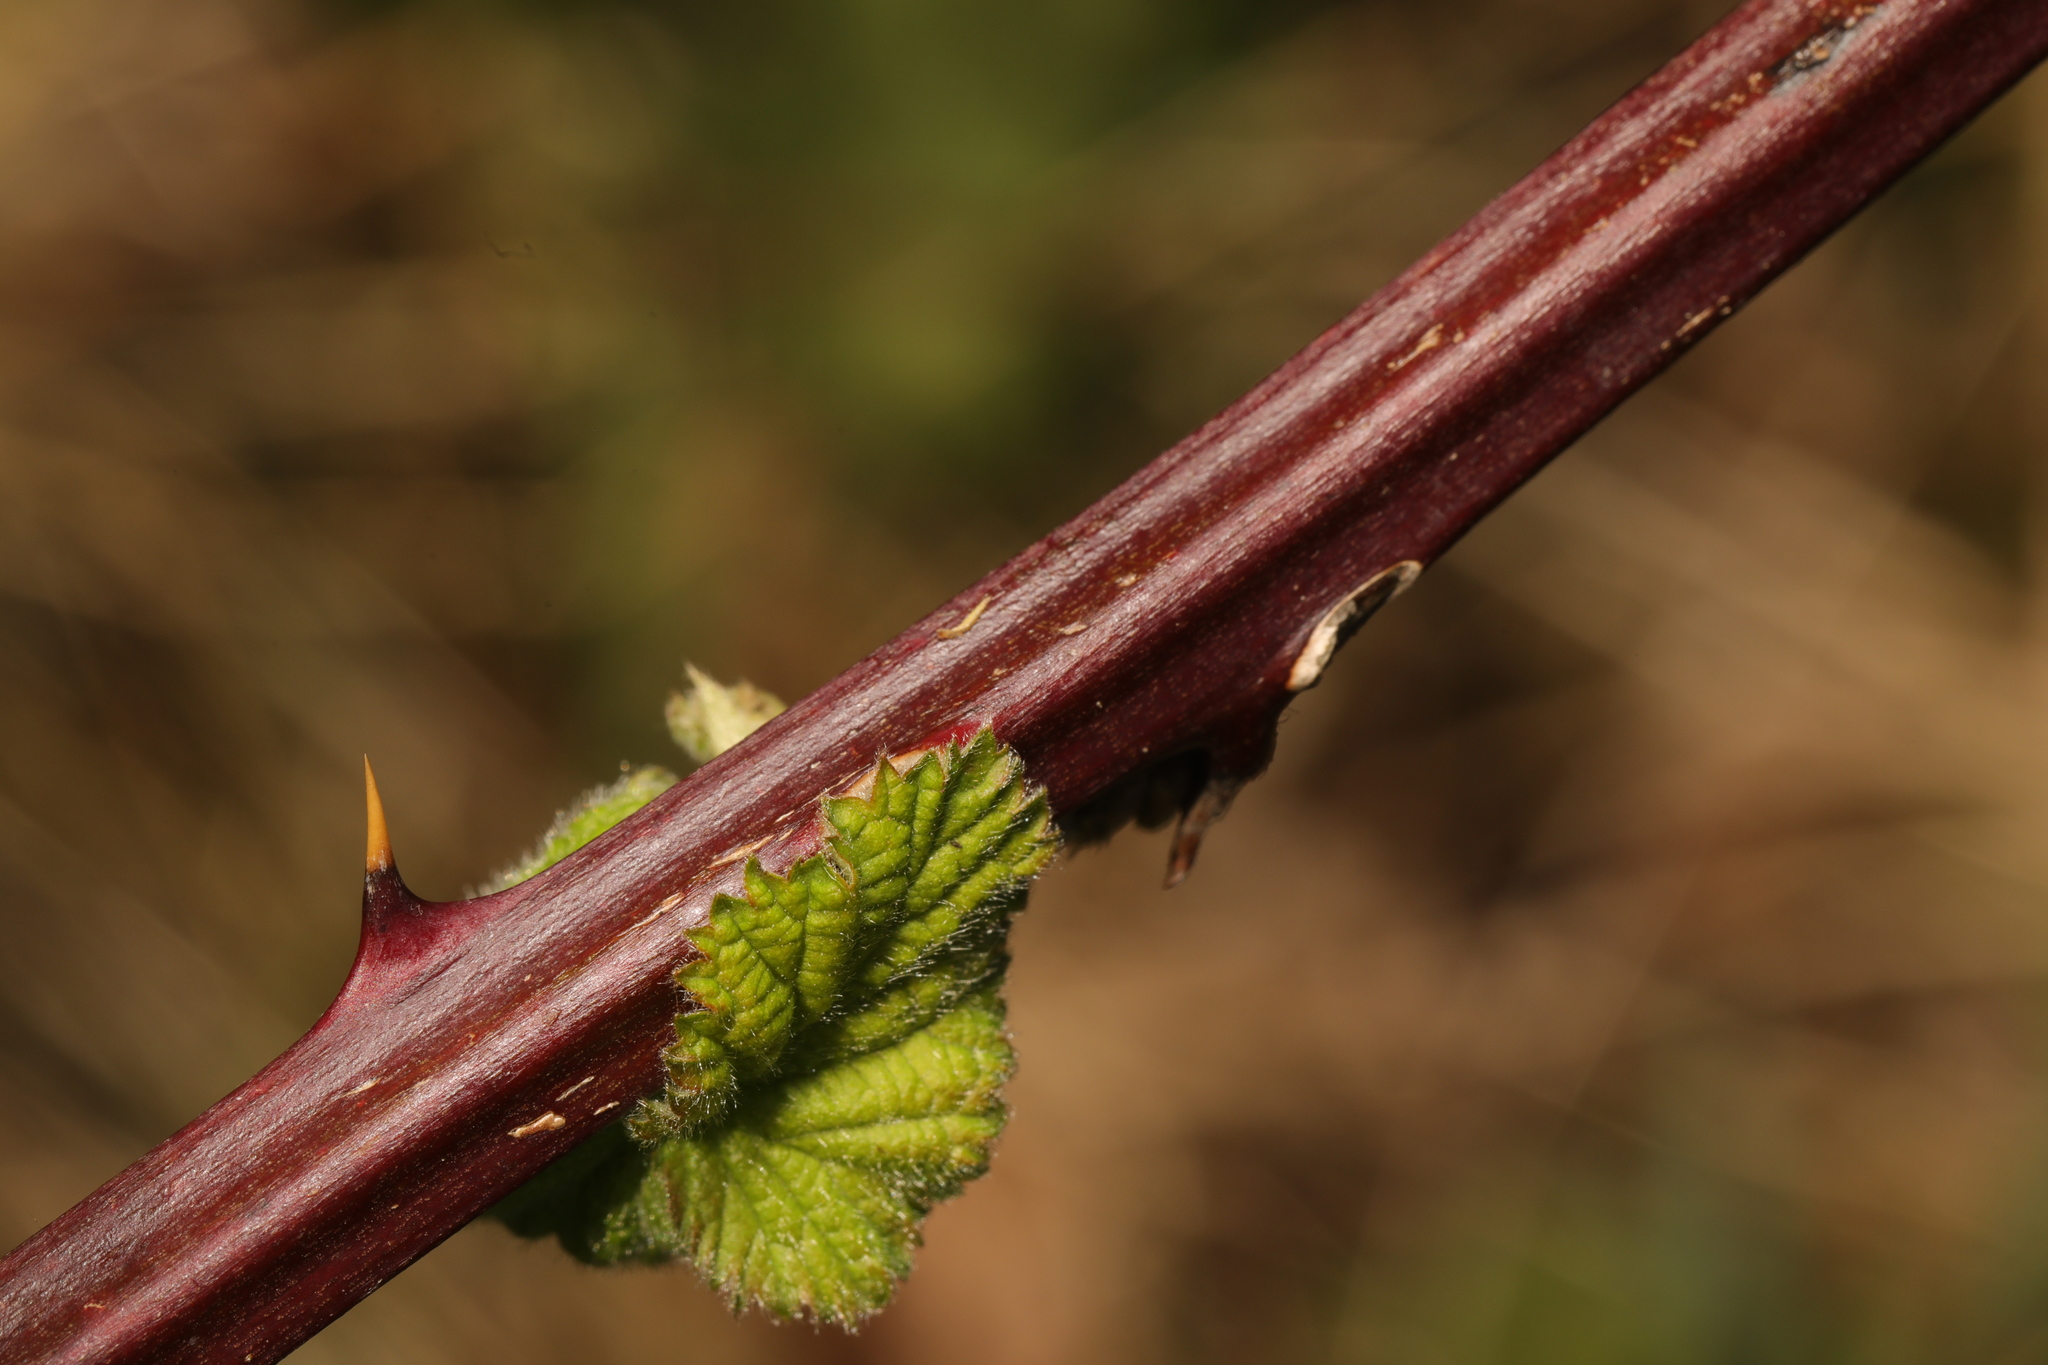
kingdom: Plantae
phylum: Tracheophyta
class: Magnoliopsida
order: Rosales
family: Rosaceae
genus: Rubus
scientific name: Rubus armeniacus
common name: Himalayan blackberry
